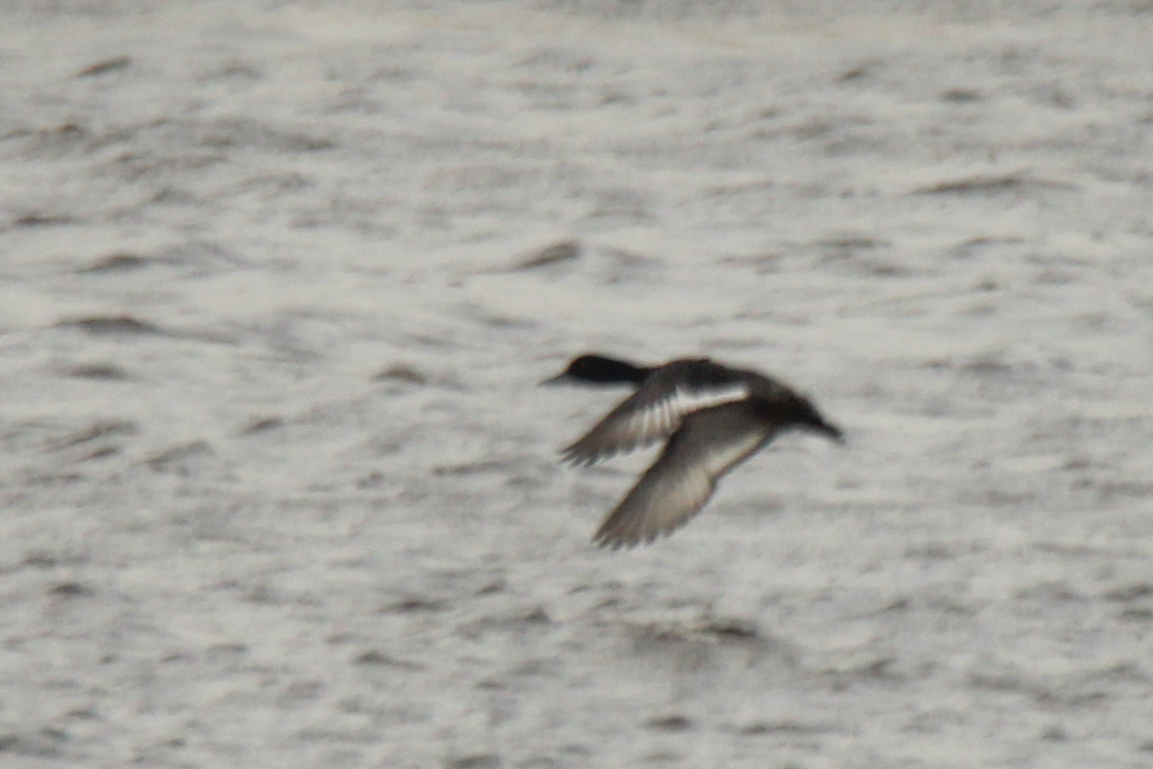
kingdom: Animalia
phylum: Chordata
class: Aves
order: Anseriformes
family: Anatidae
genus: Aythya
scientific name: Aythya fuligula
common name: Tufted duck
